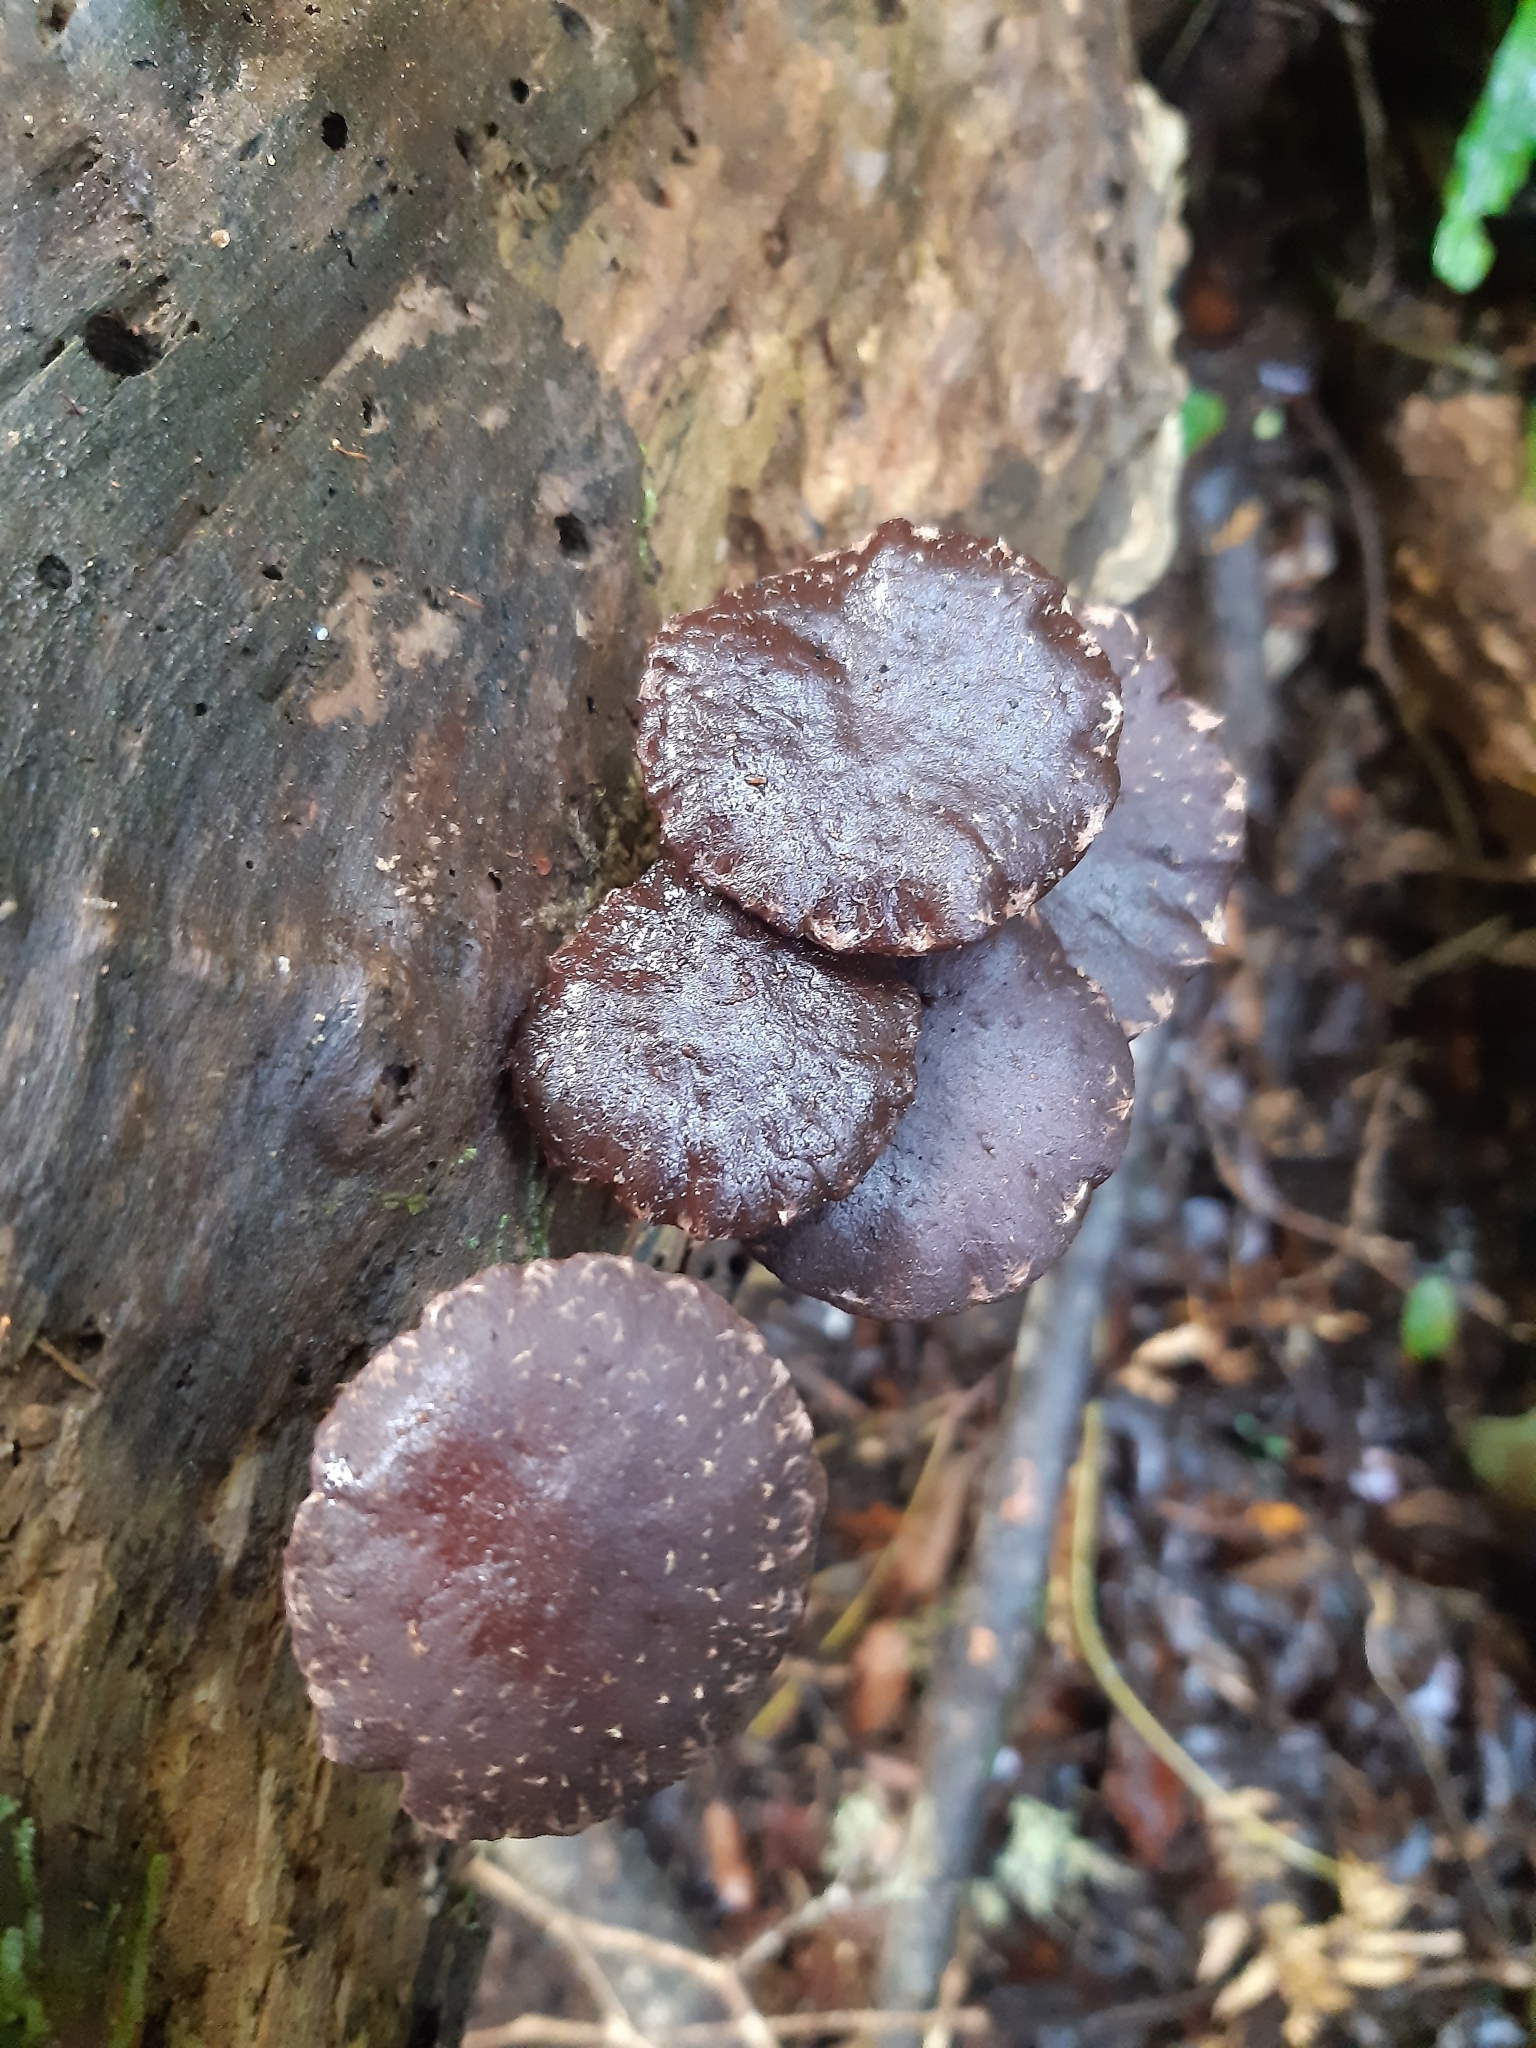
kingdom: Fungi
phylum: Basidiomycota
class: Agaricomycetes
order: Agaricales
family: Strophariaceae
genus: Hypholoma
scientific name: Hypholoma brunneum
